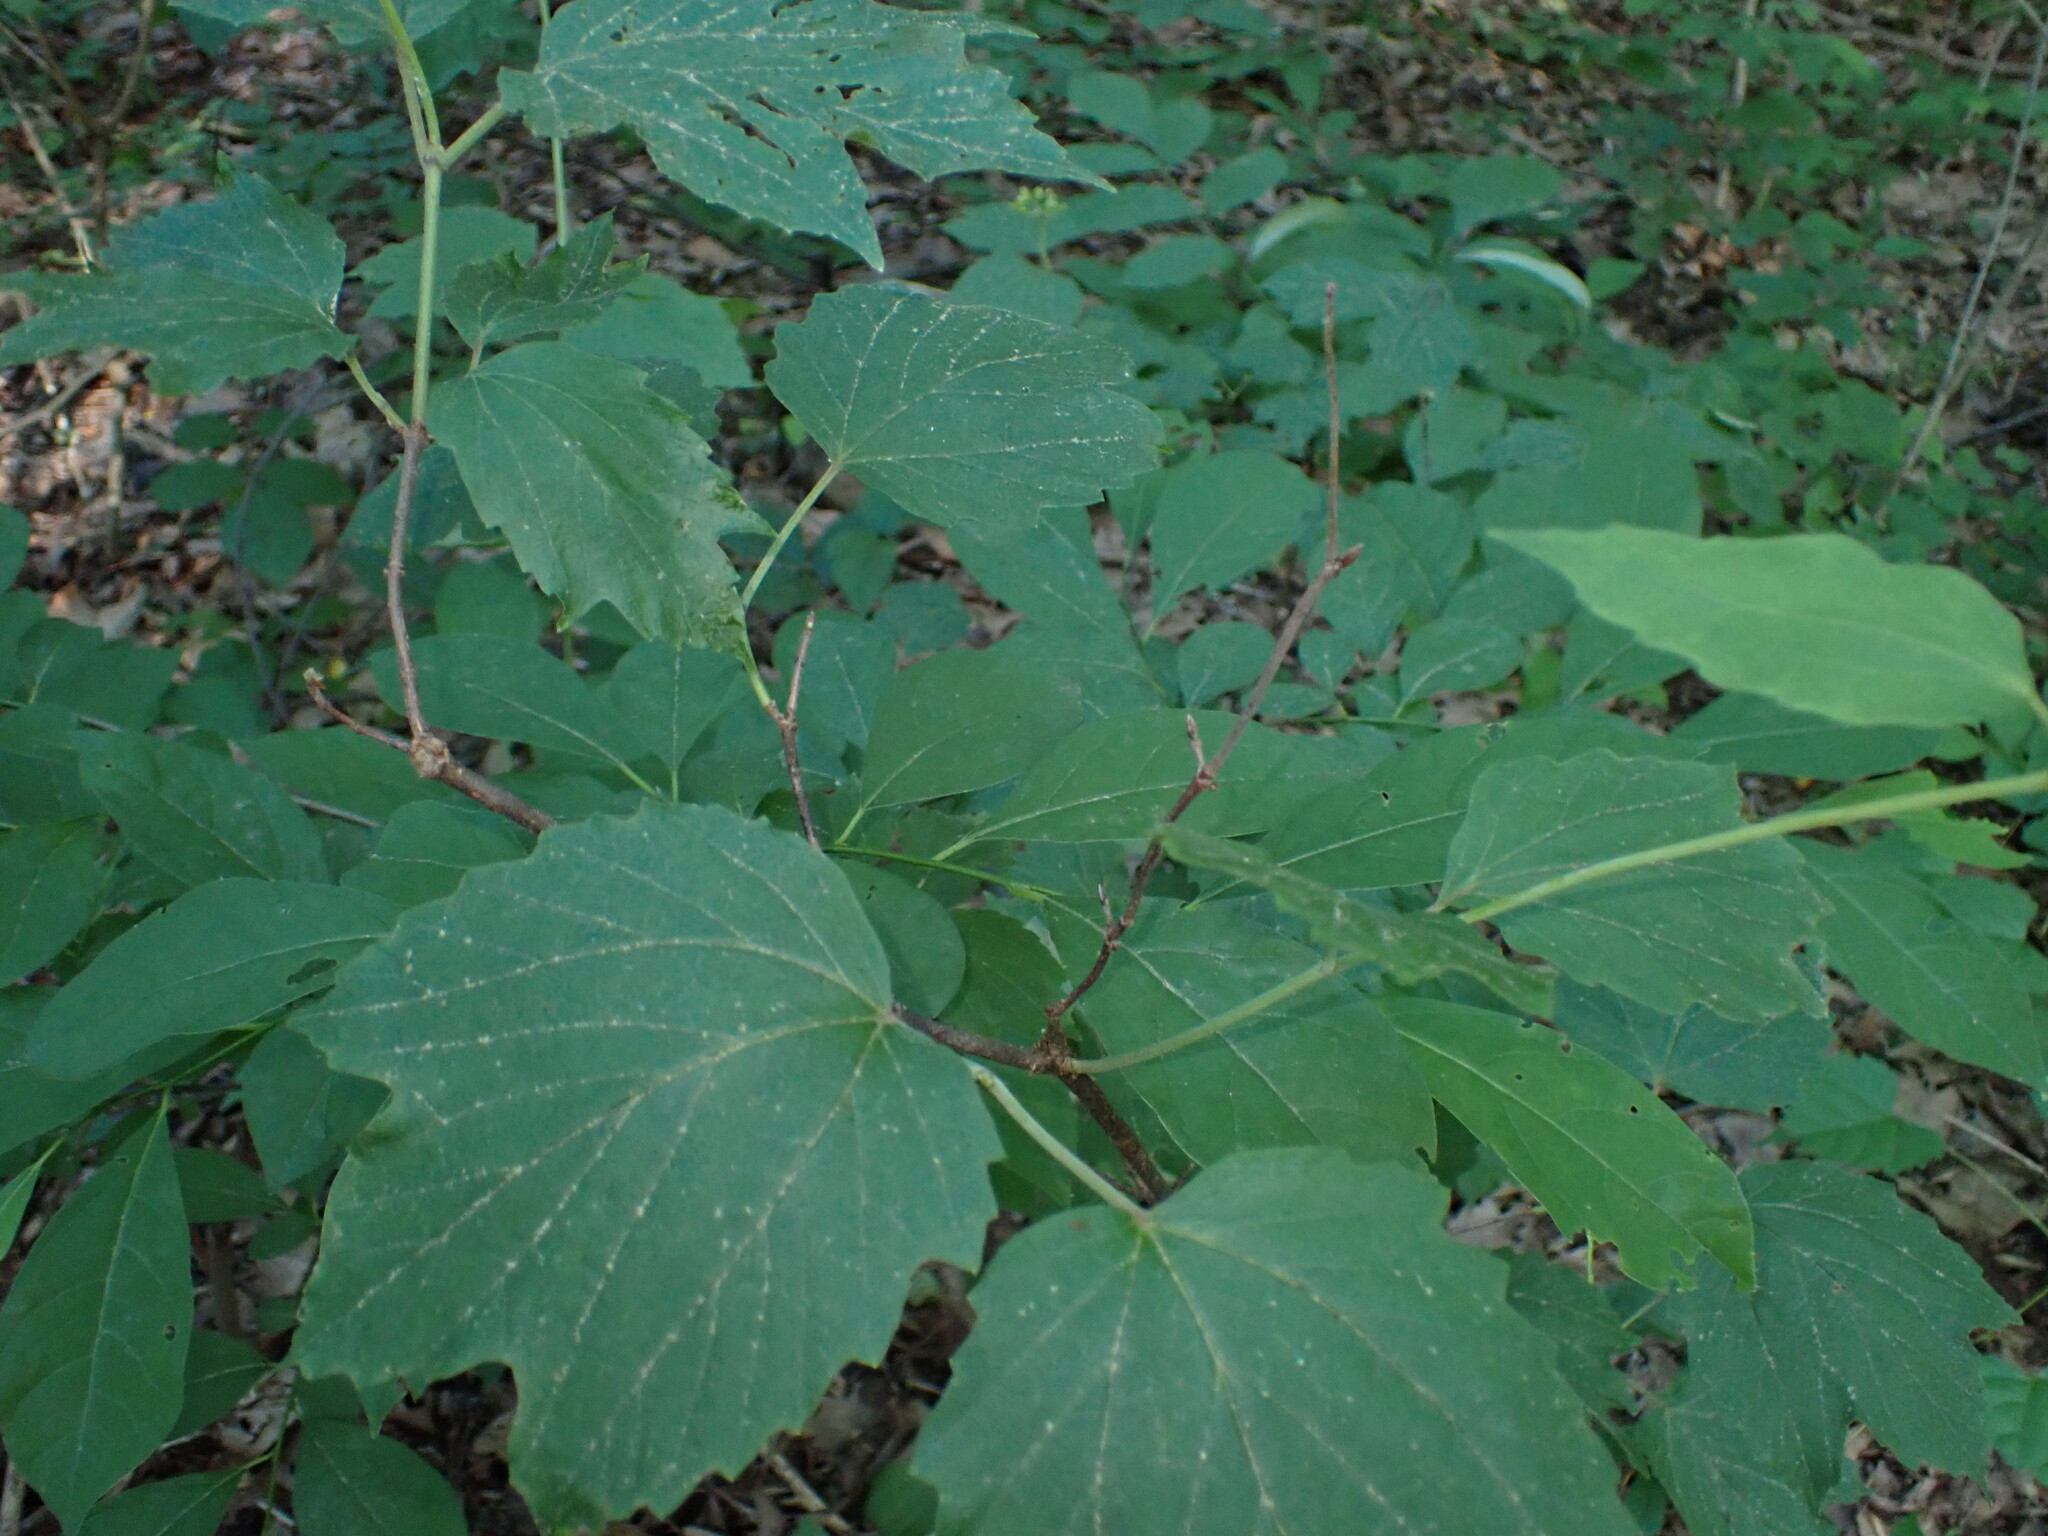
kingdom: Plantae
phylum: Tracheophyta
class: Magnoliopsida
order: Dipsacales
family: Viburnaceae
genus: Viburnum
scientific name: Viburnum acerifolium
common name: Dockmackie
